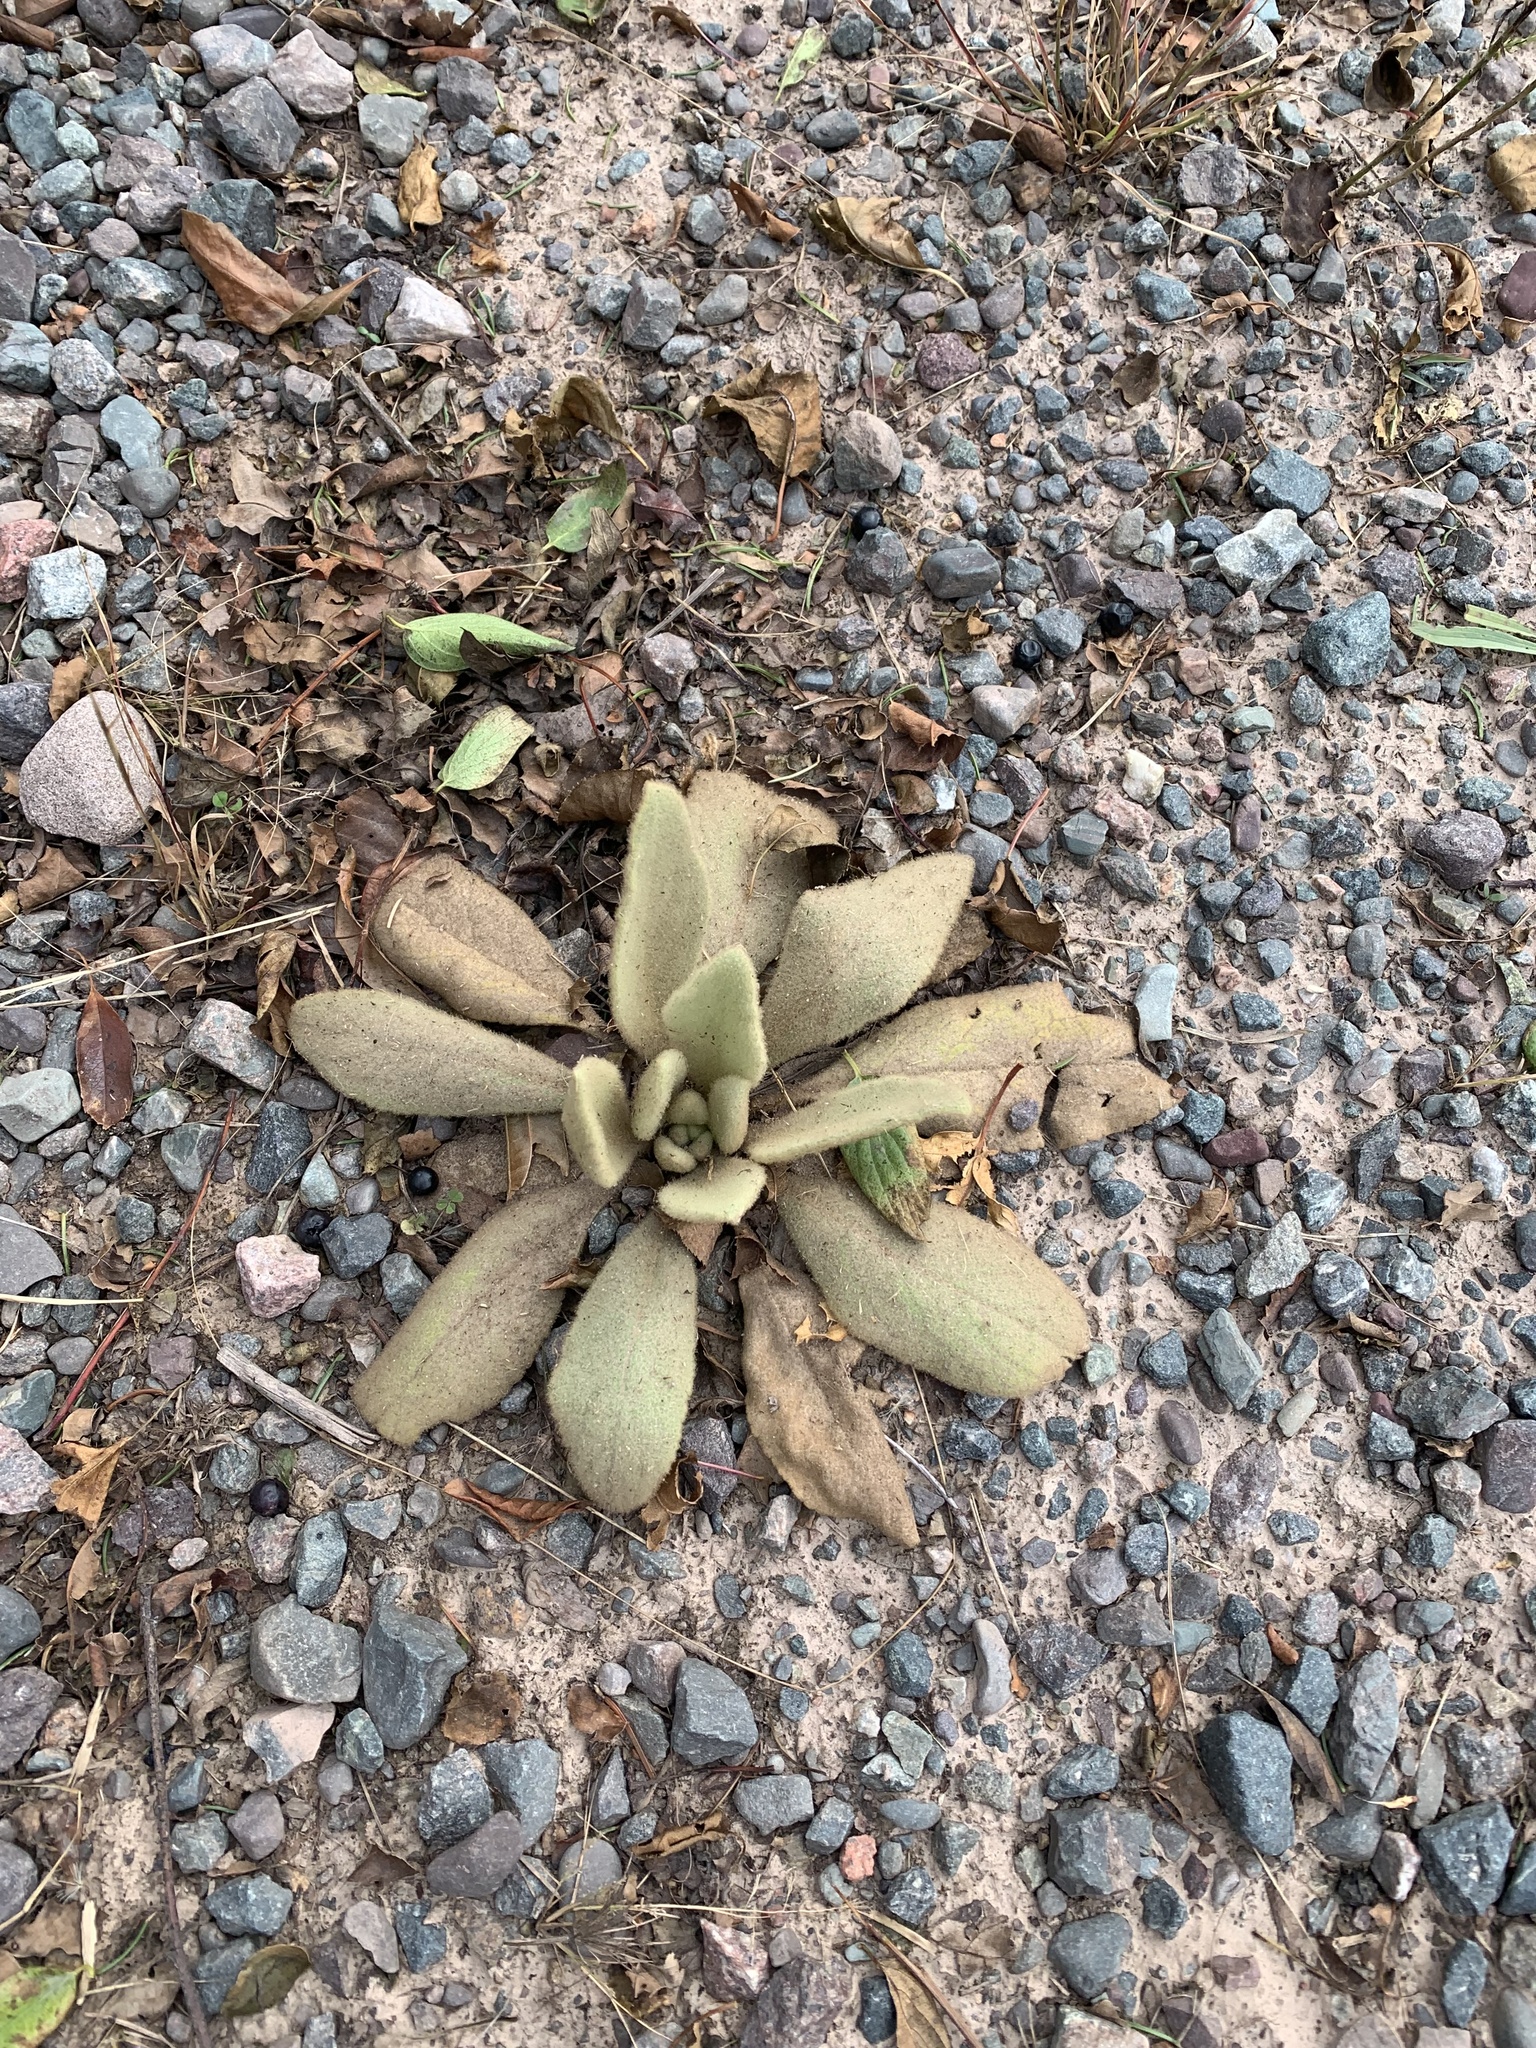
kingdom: Plantae
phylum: Tracheophyta
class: Magnoliopsida
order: Lamiales
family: Scrophulariaceae
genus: Verbascum
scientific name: Verbascum thapsus
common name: Common mullein
